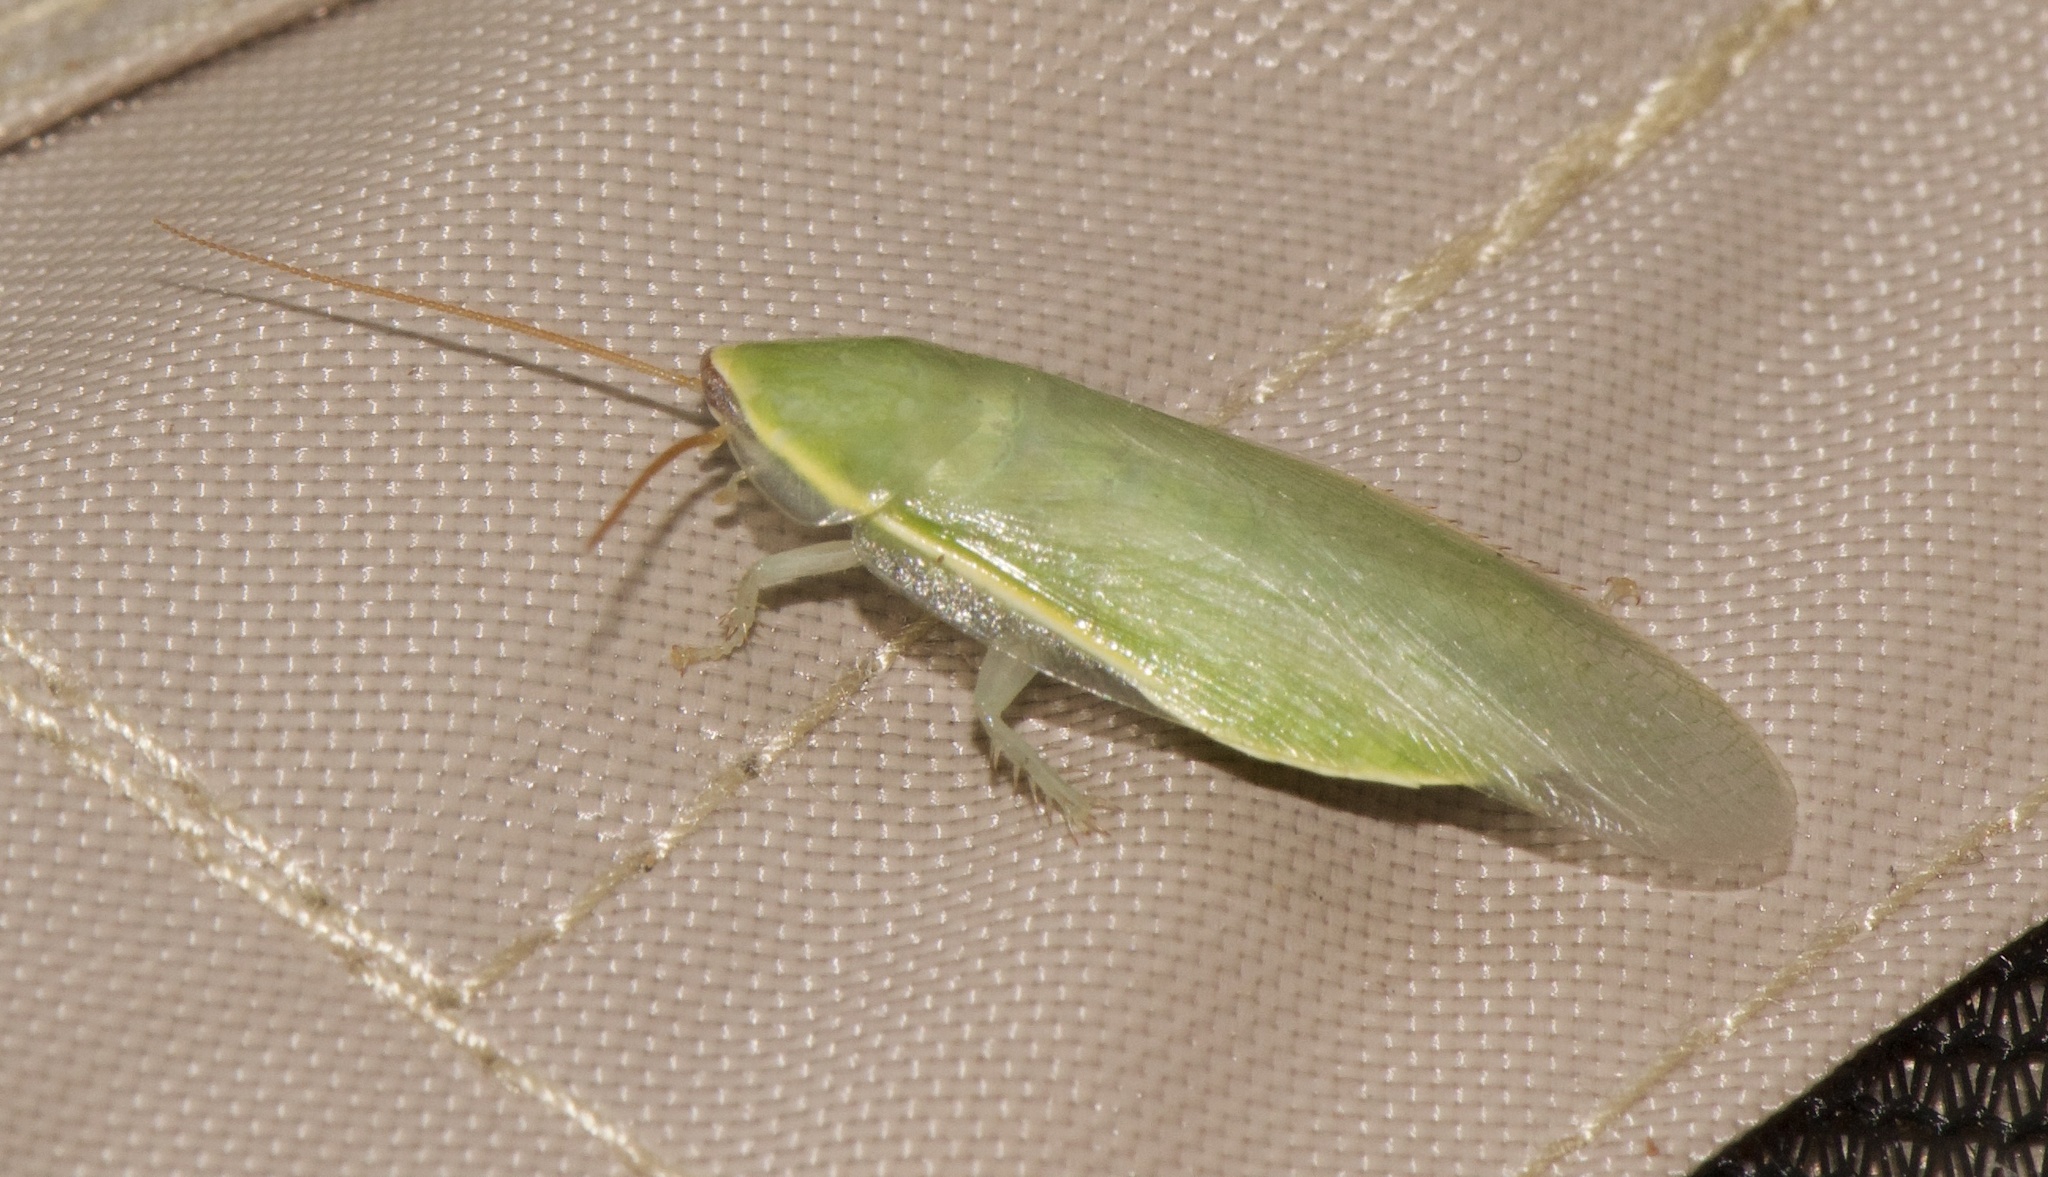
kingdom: Animalia
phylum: Arthropoda
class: Insecta
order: Blattodea
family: Blaberidae
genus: Panchlora
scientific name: Panchlora nivea
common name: Cuban cockroach
